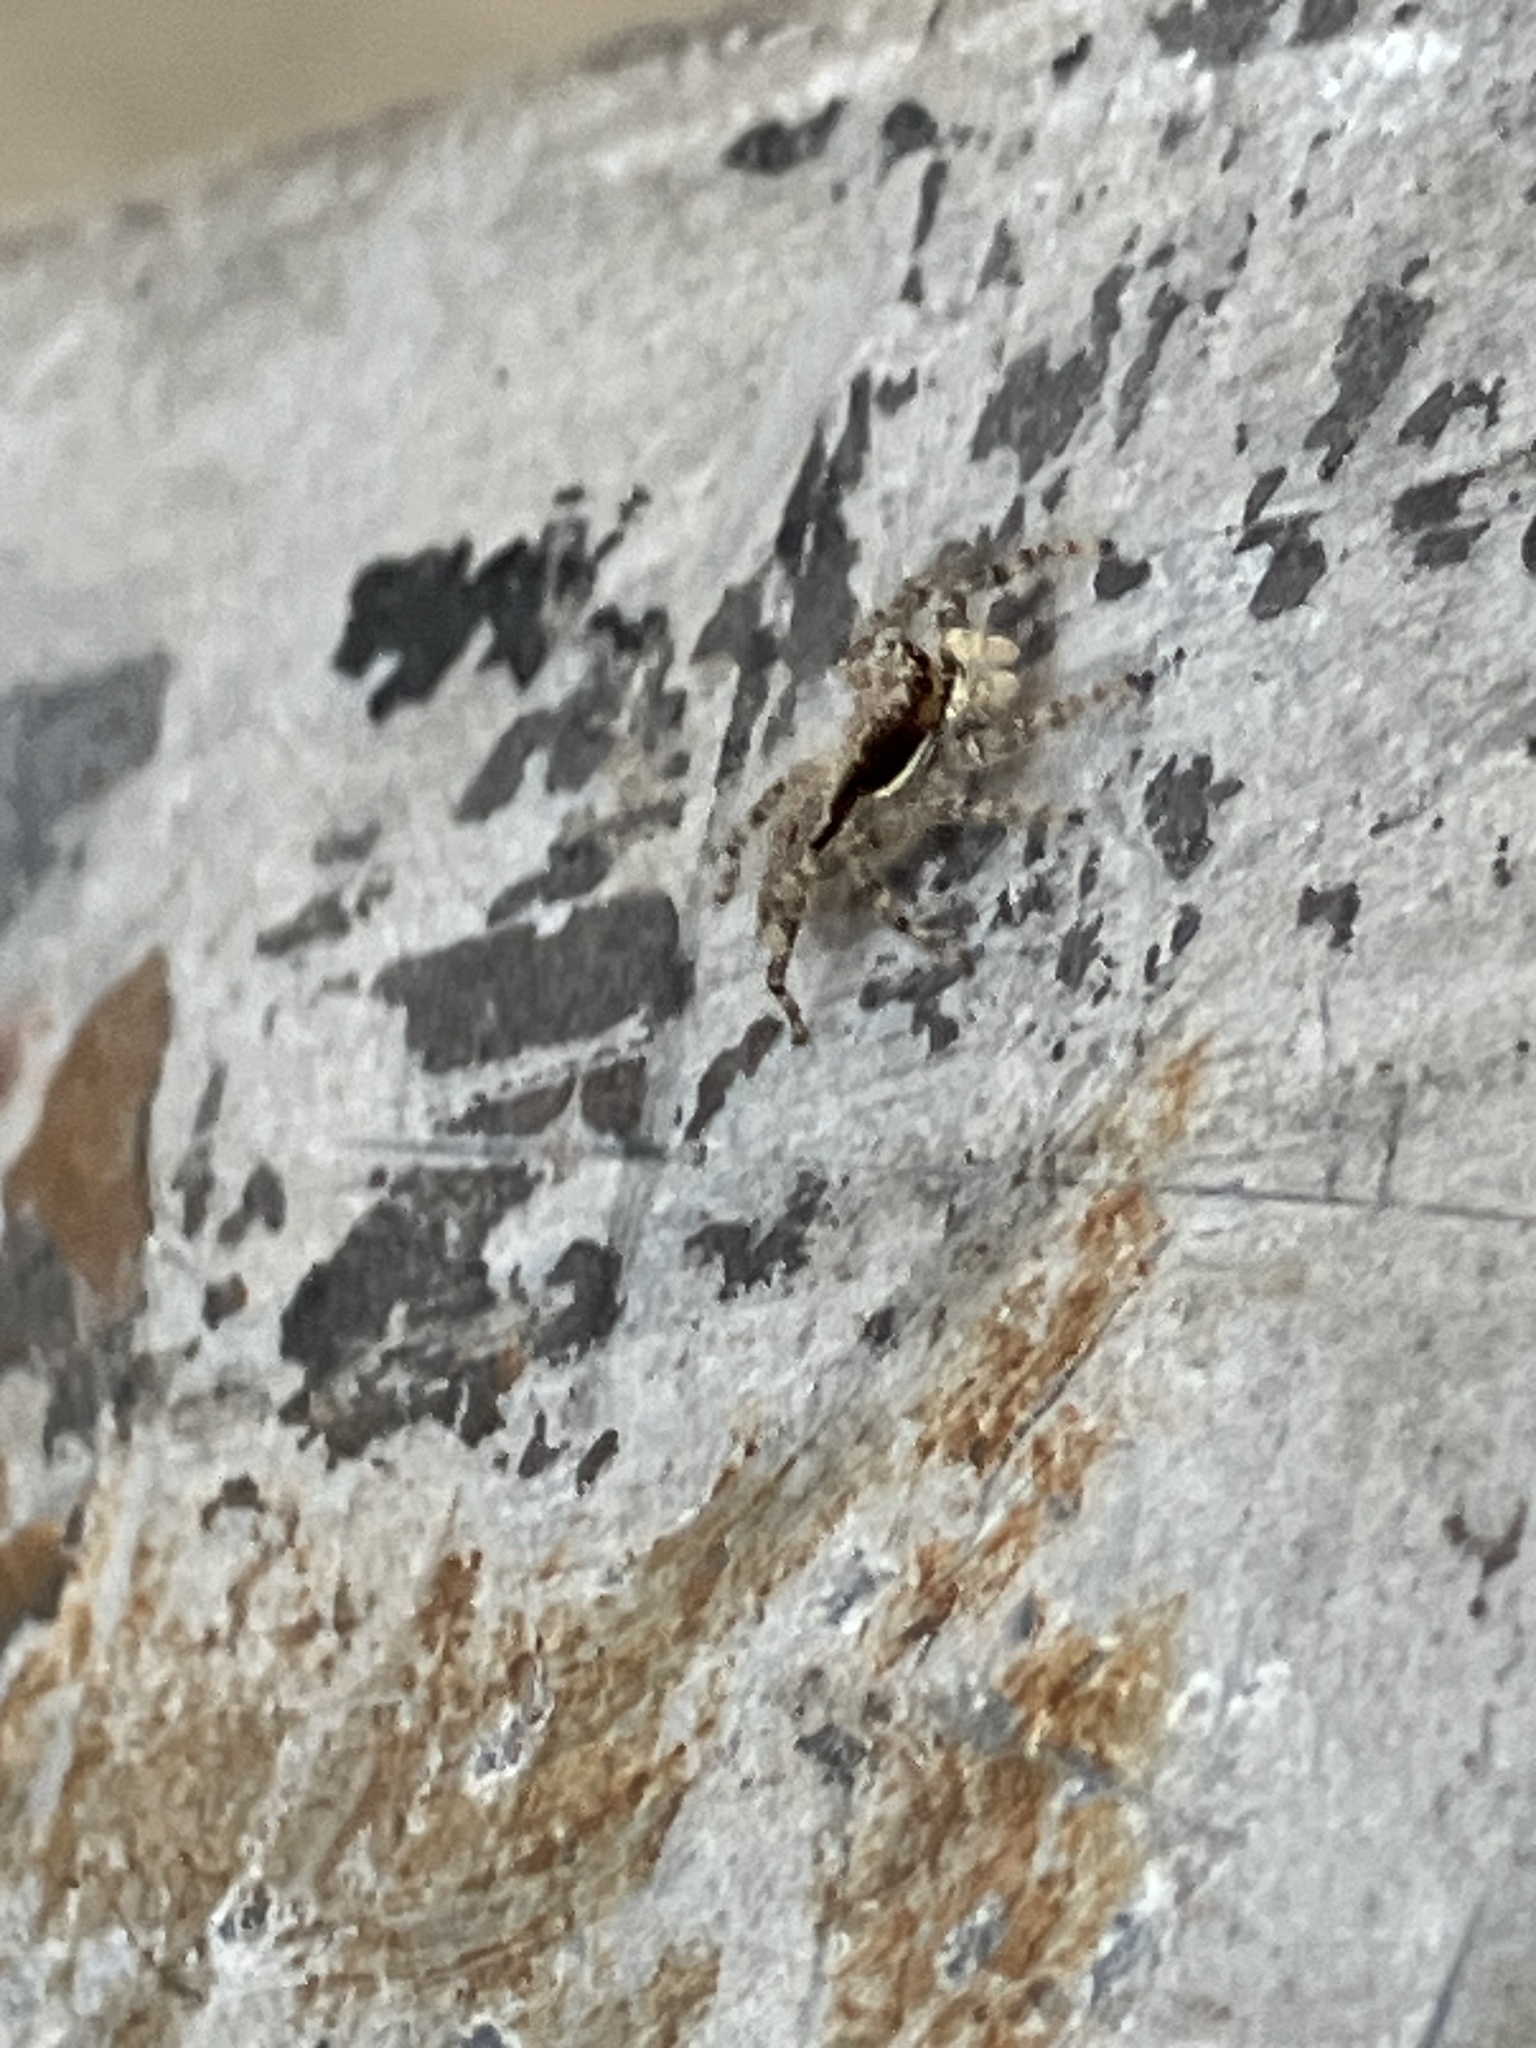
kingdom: Animalia
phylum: Arthropoda
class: Arachnida
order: Araneae
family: Salticidae
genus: Menemerus
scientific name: Menemerus bivittatus
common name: Gray wall jumper
